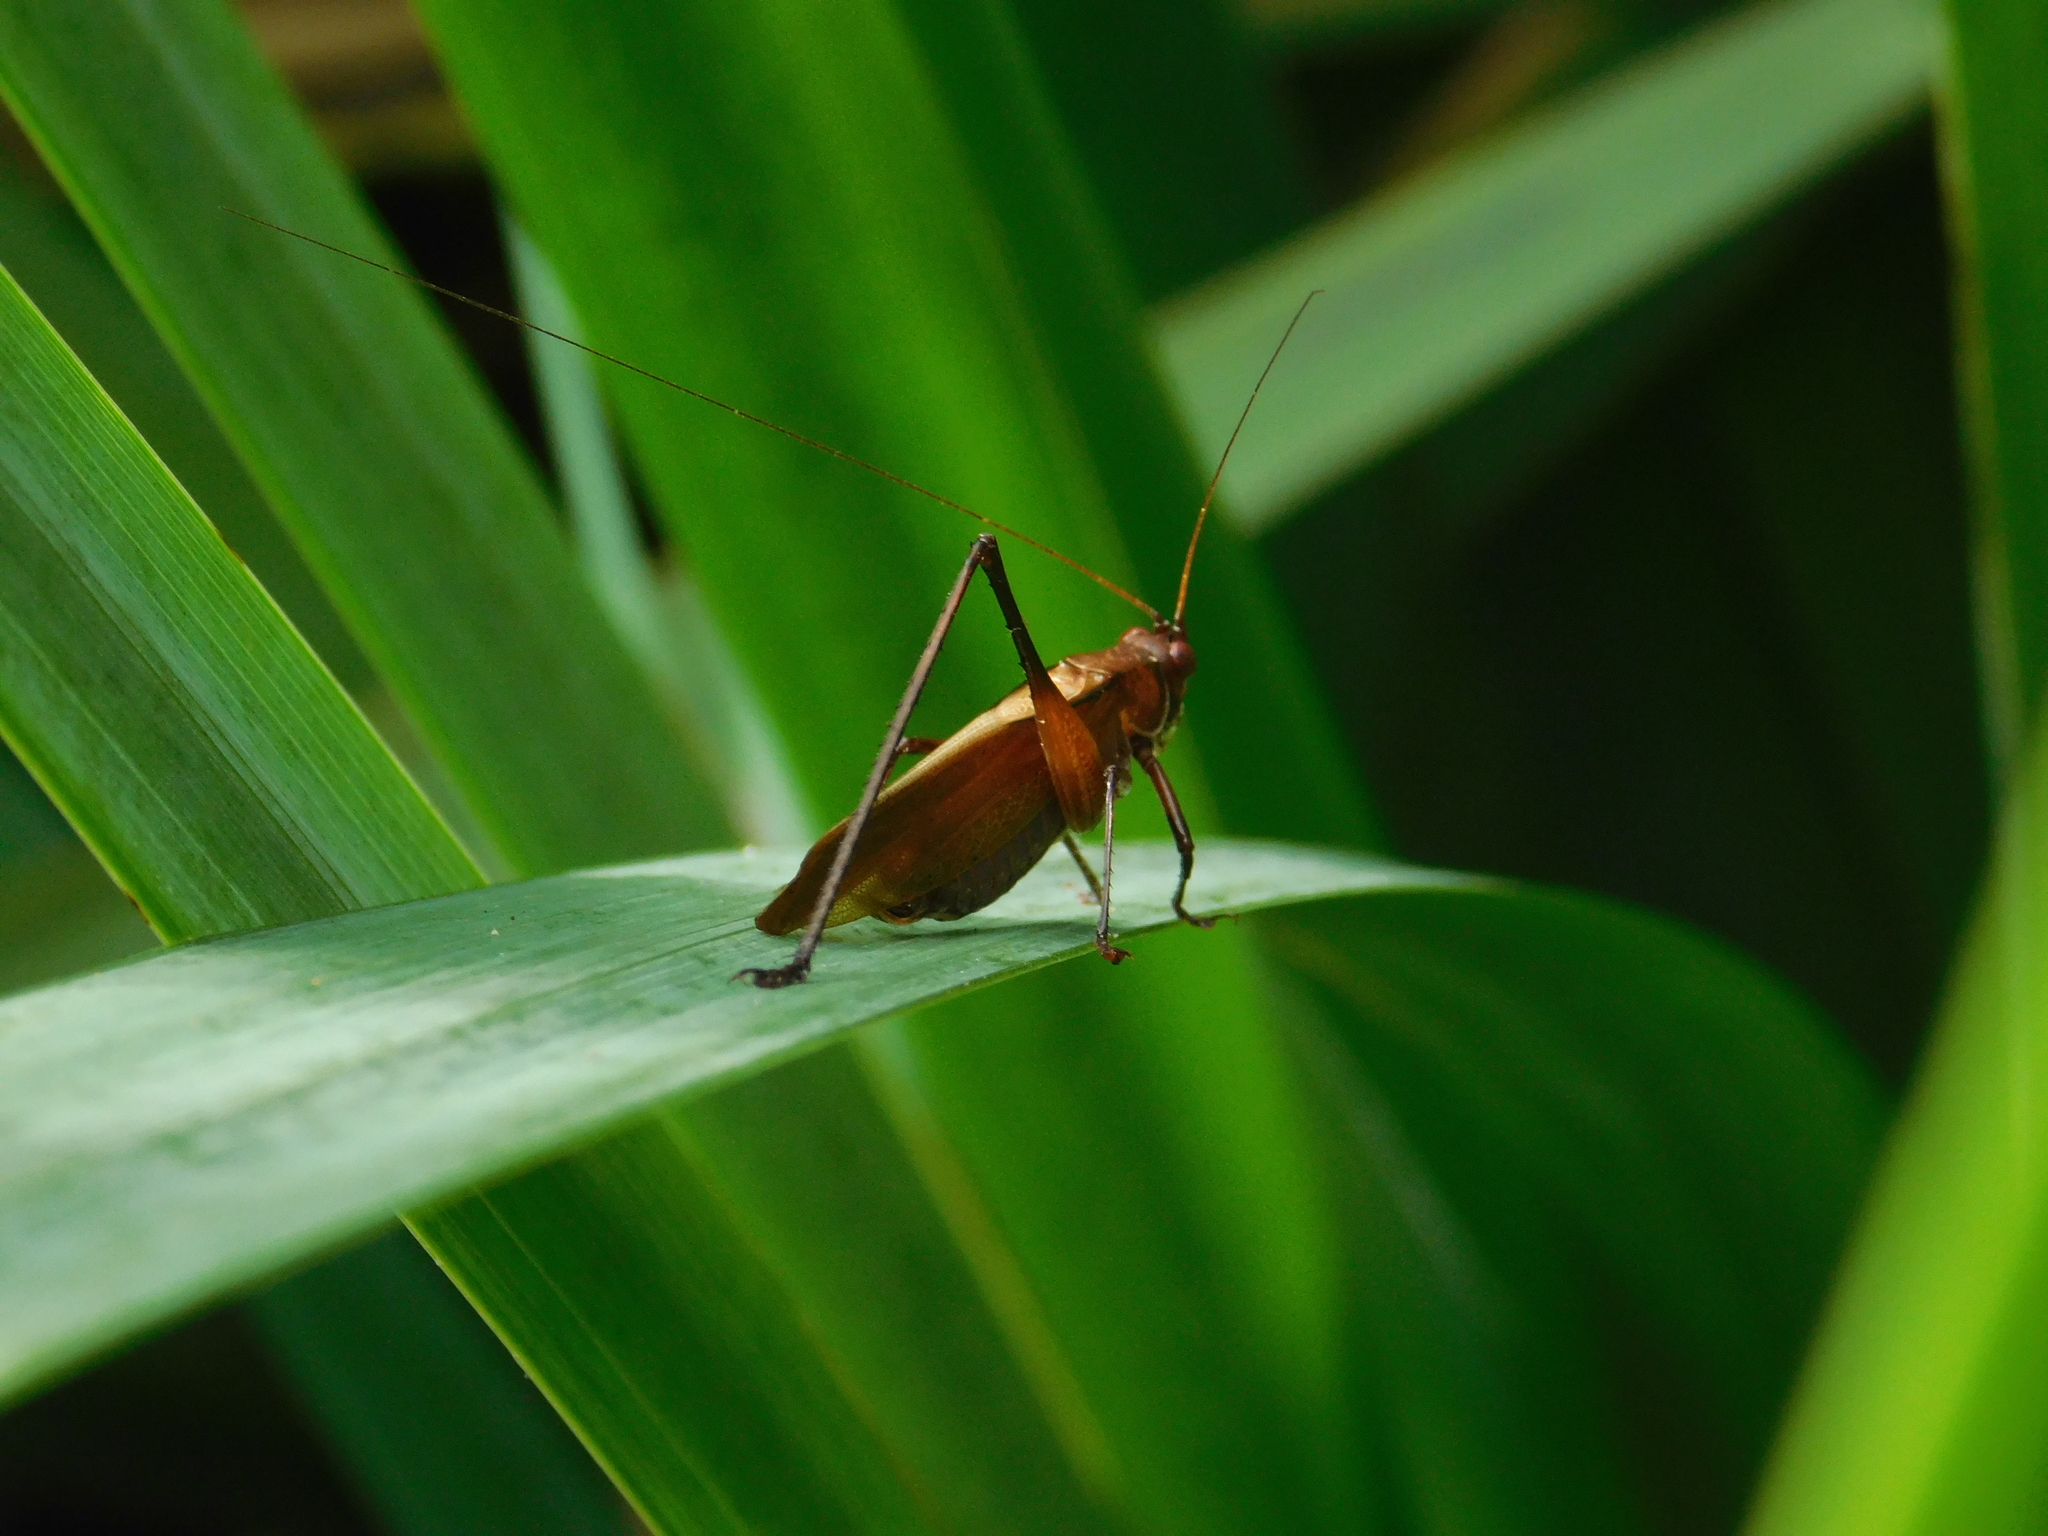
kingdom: Animalia
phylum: Arthropoda
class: Insecta
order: Orthoptera
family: Tettigoniidae
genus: Theudoria
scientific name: Theudoria melanocnemis
